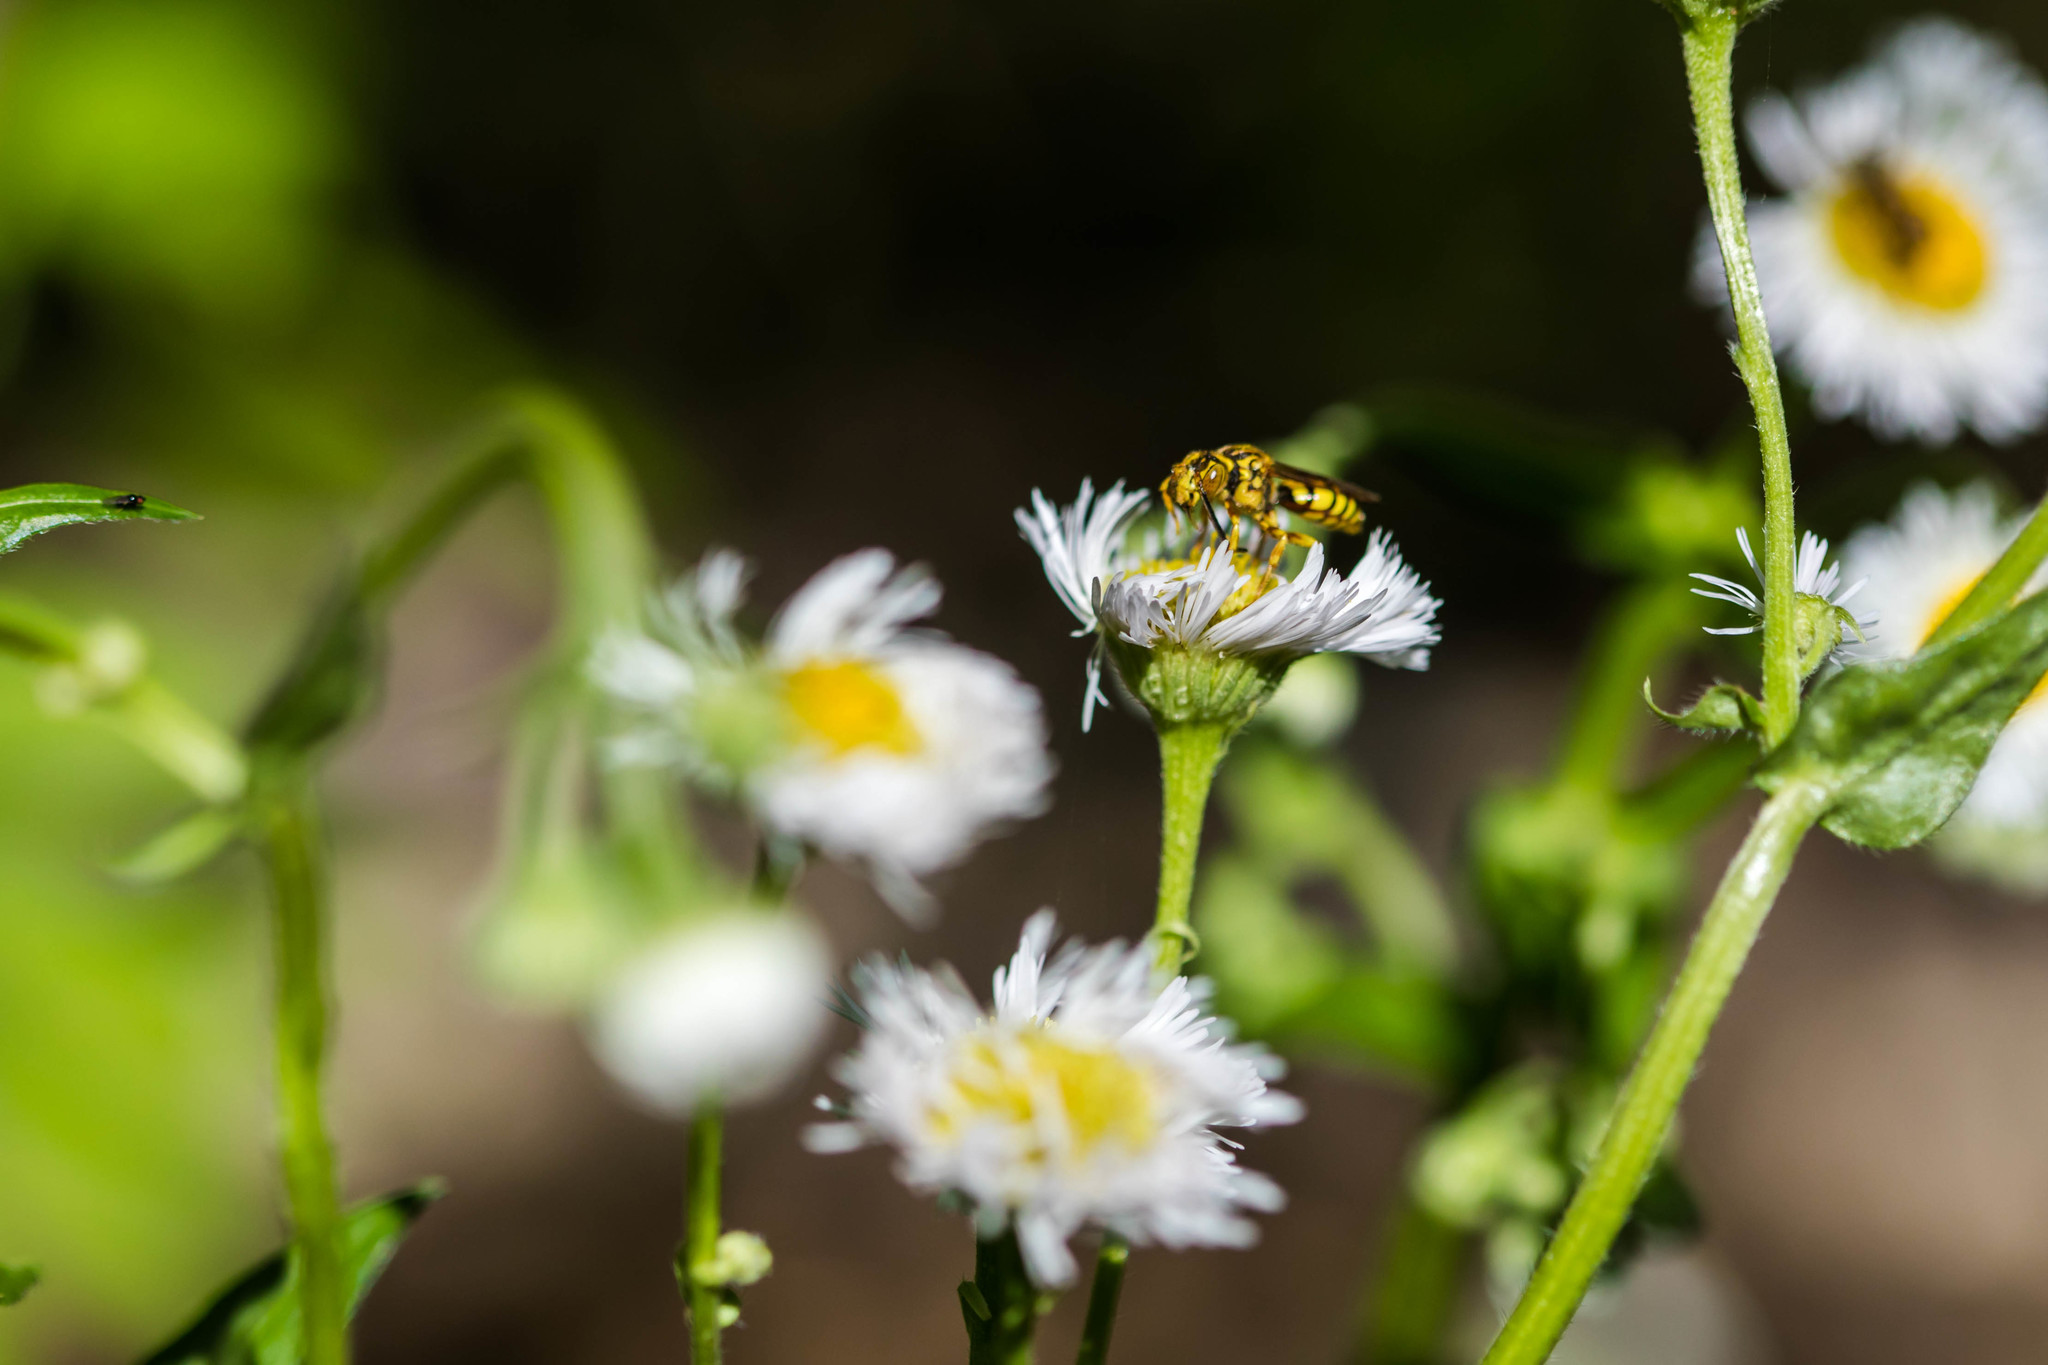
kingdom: Animalia
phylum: Arthropoda
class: Insecta
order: Hymenoptera
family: Apidae
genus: Nomada
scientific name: Nomada
